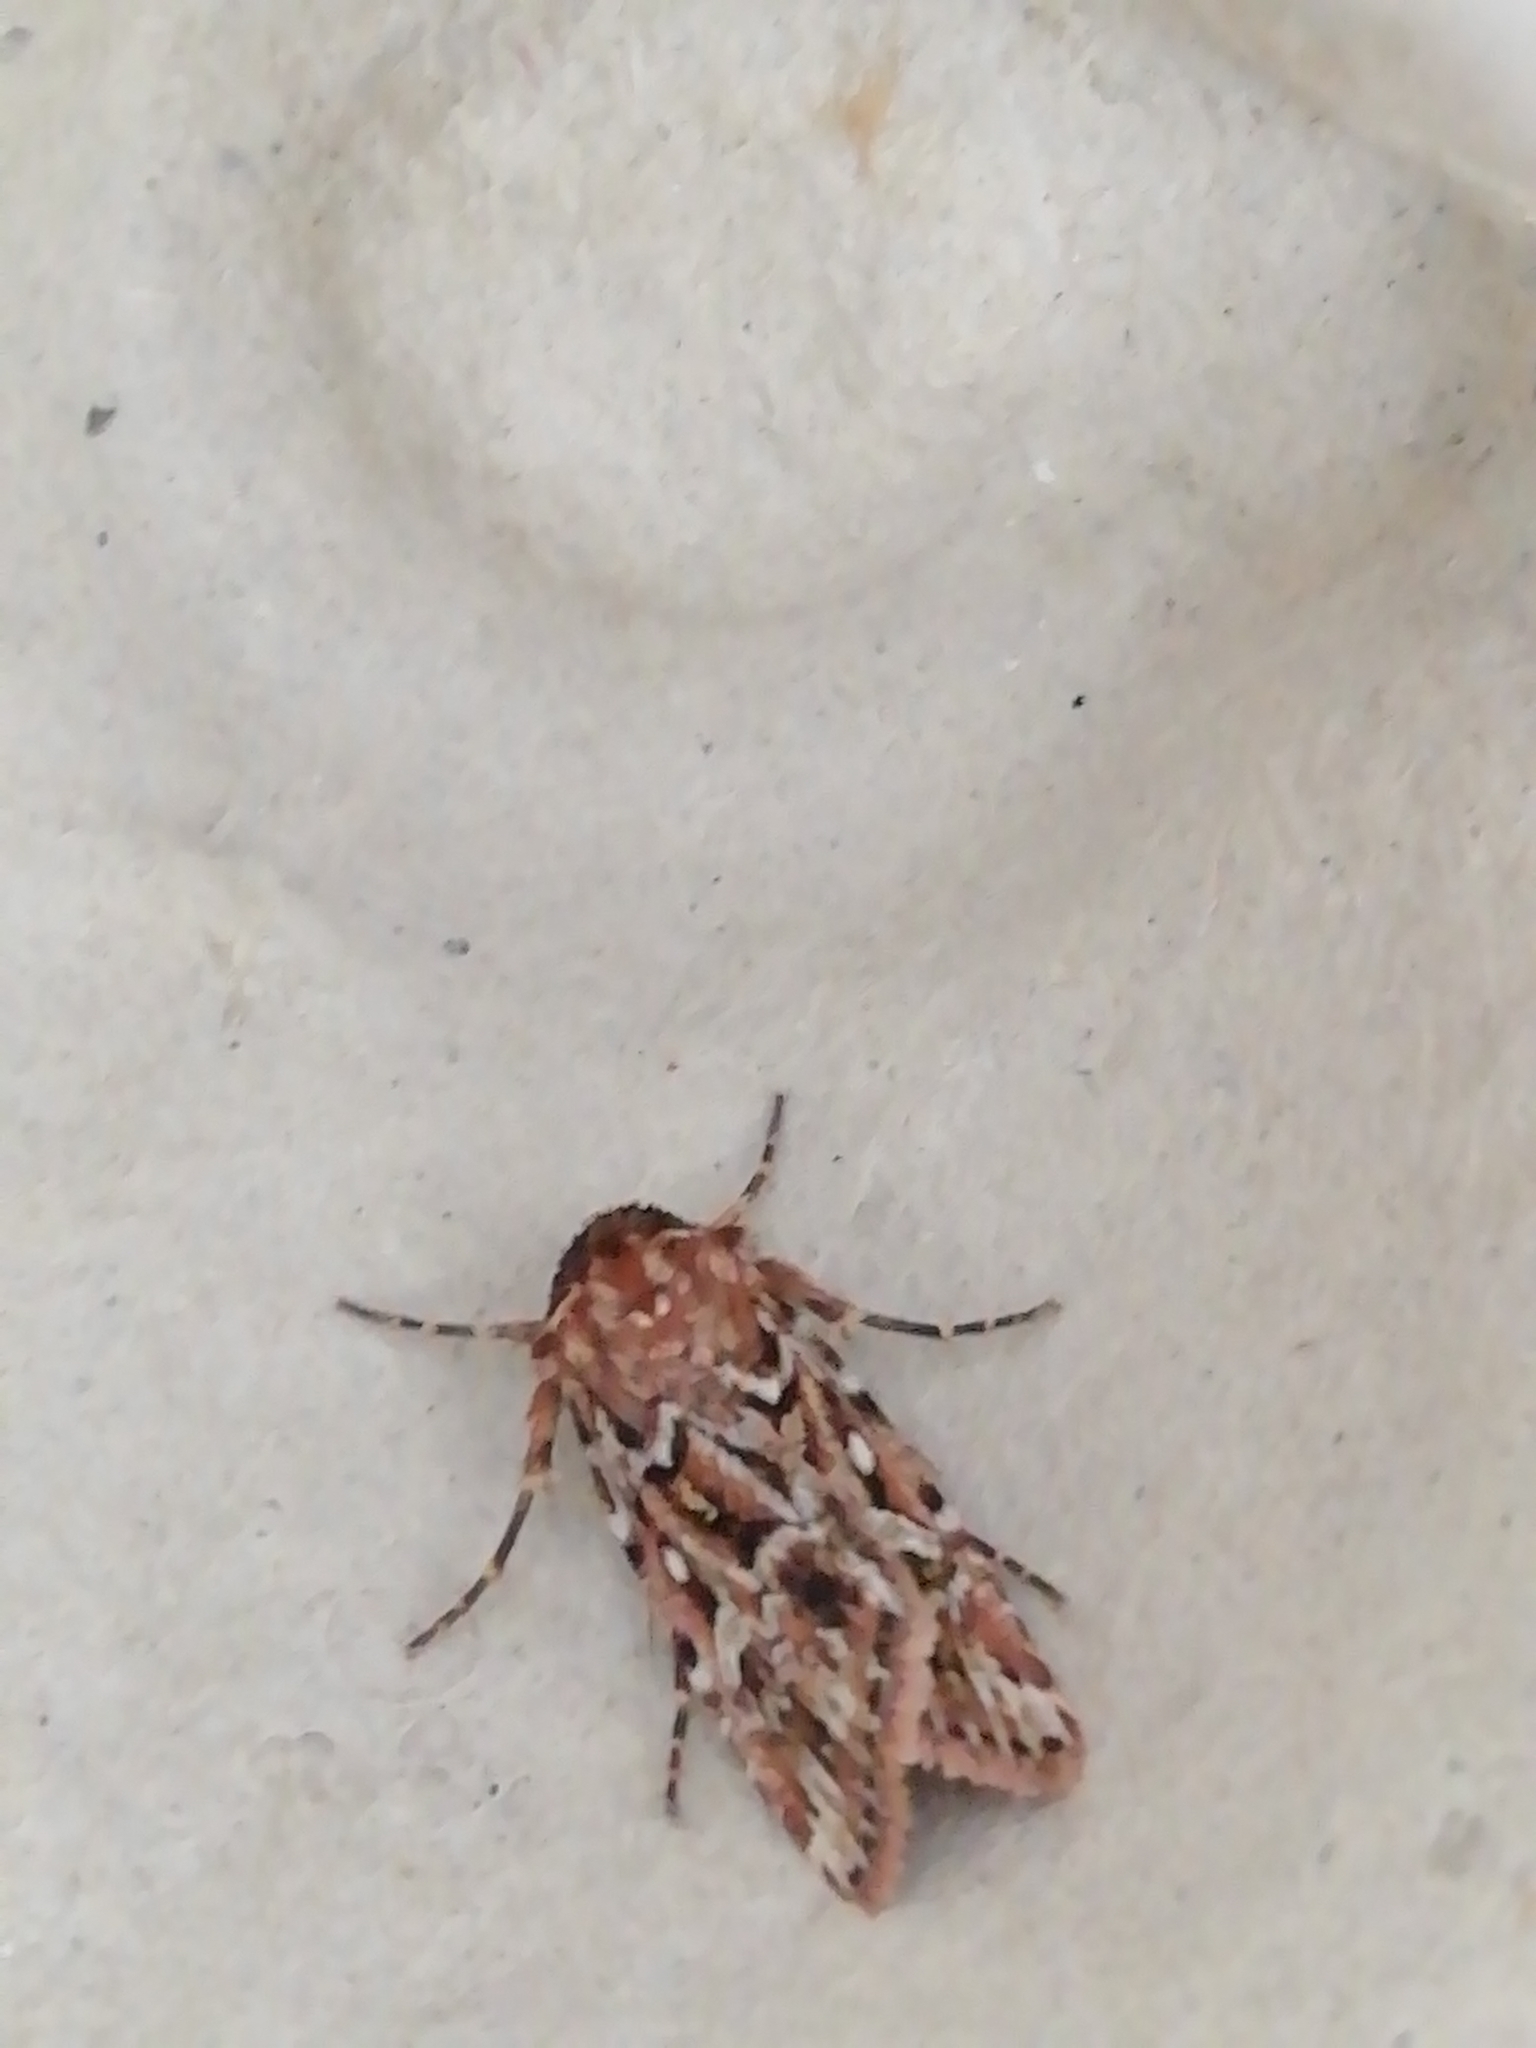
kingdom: Animalia
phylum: Arthropoda
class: Insecta
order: Lepidoptera
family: Noctuidae
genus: Lycophotia
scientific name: Lycophotia porphyrea
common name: True lover's knot
